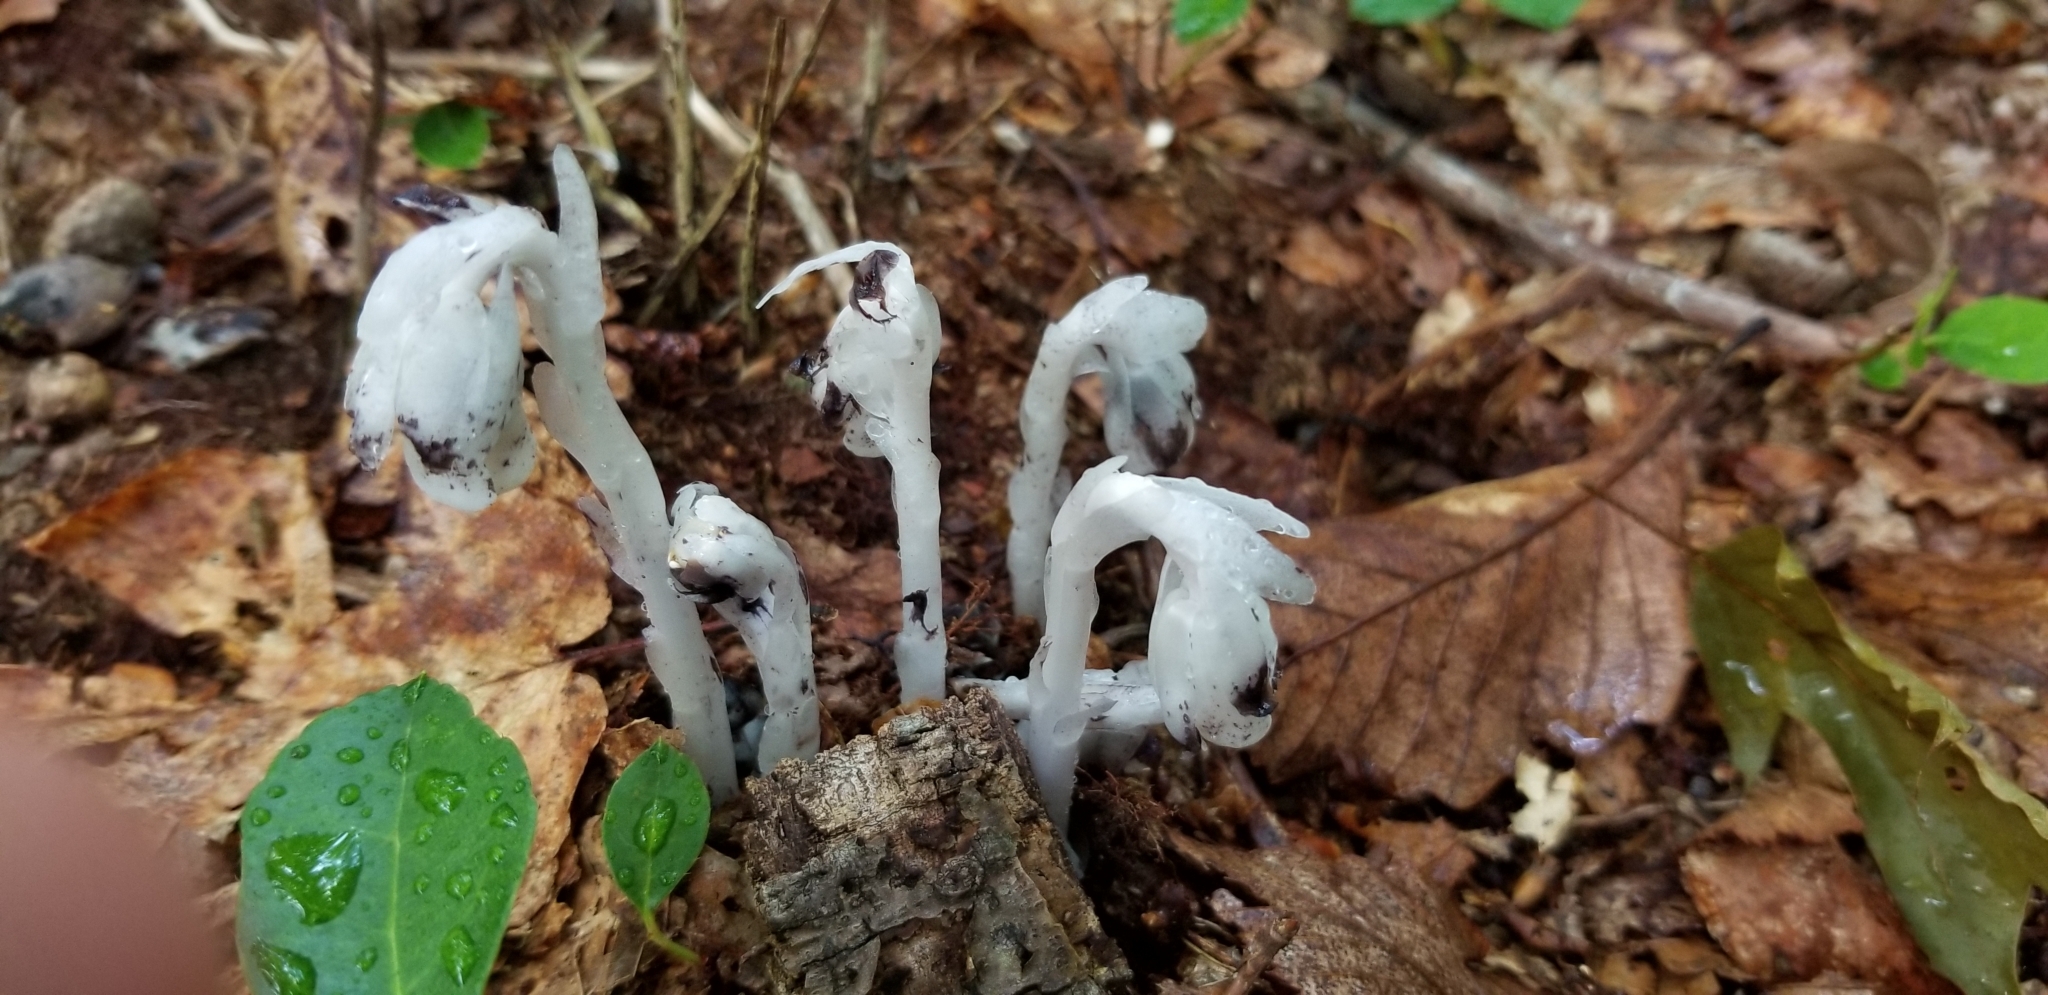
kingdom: Plantae
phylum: Tracheophyta
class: Magnoliopsida
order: Ericales
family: Ericaceae
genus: Monotropa
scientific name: Monotropa uniflora
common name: Convulsion root
